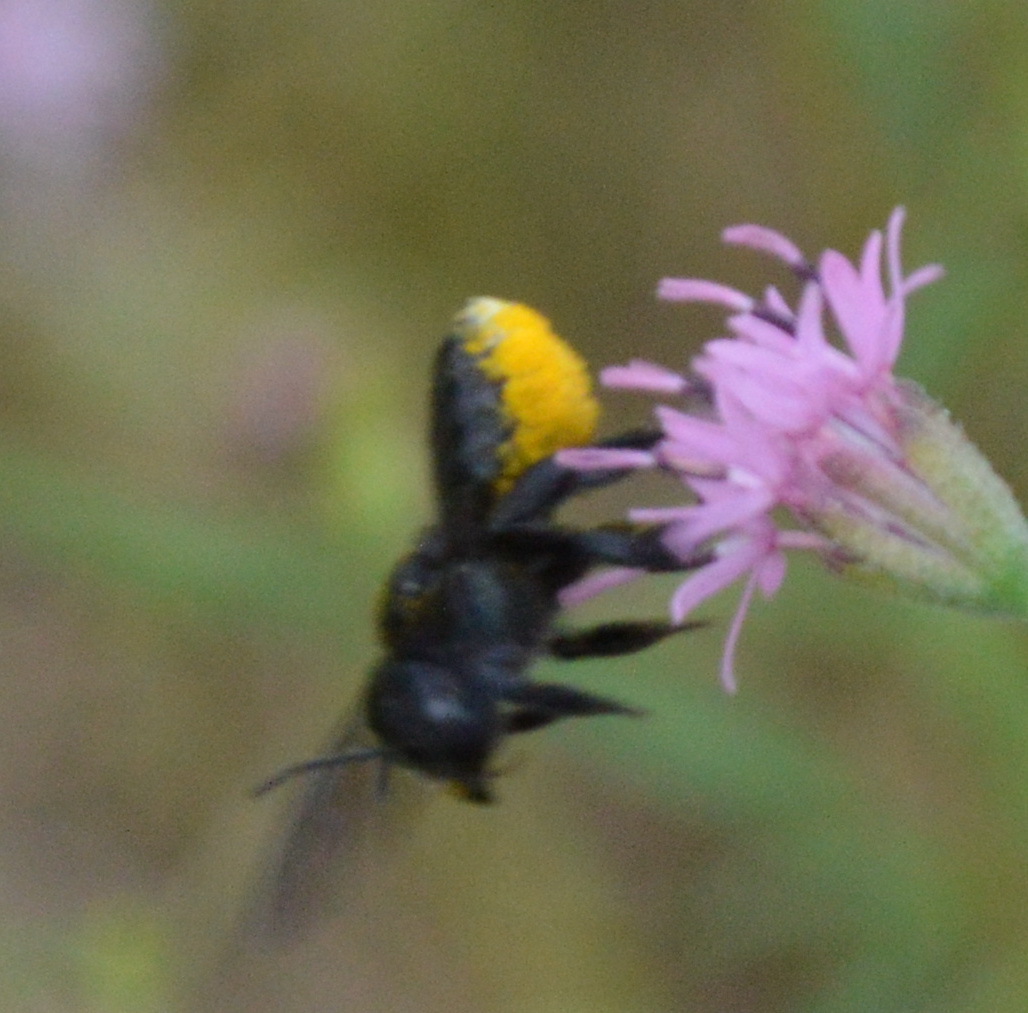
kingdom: Animalia
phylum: Arthropoda
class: Insecta
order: Hymenoptera
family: Megachilidae
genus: Megachile
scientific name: Megachile xylocopoides
